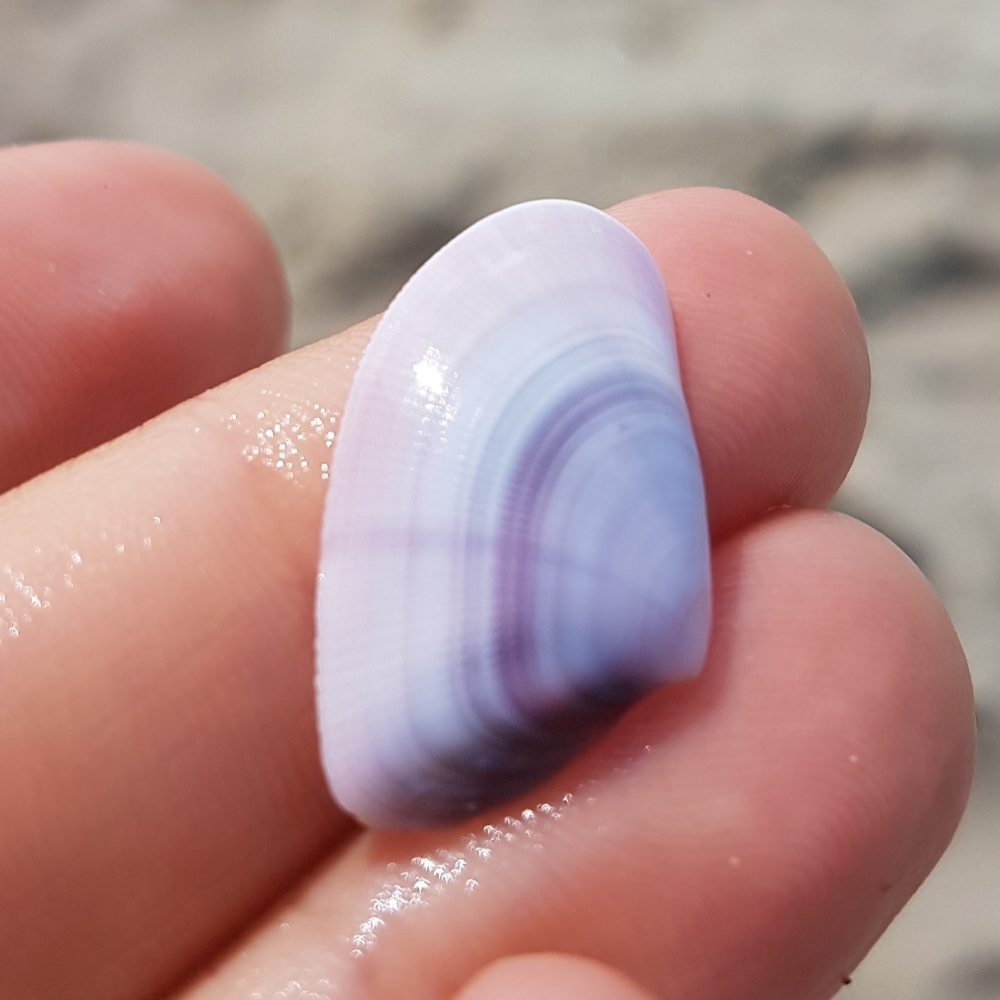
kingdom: Animalia
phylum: Mollusca
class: Bivalvia
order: Cardiida
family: Donacidae
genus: Donax
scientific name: Donax trunculus
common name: Truncate donax
